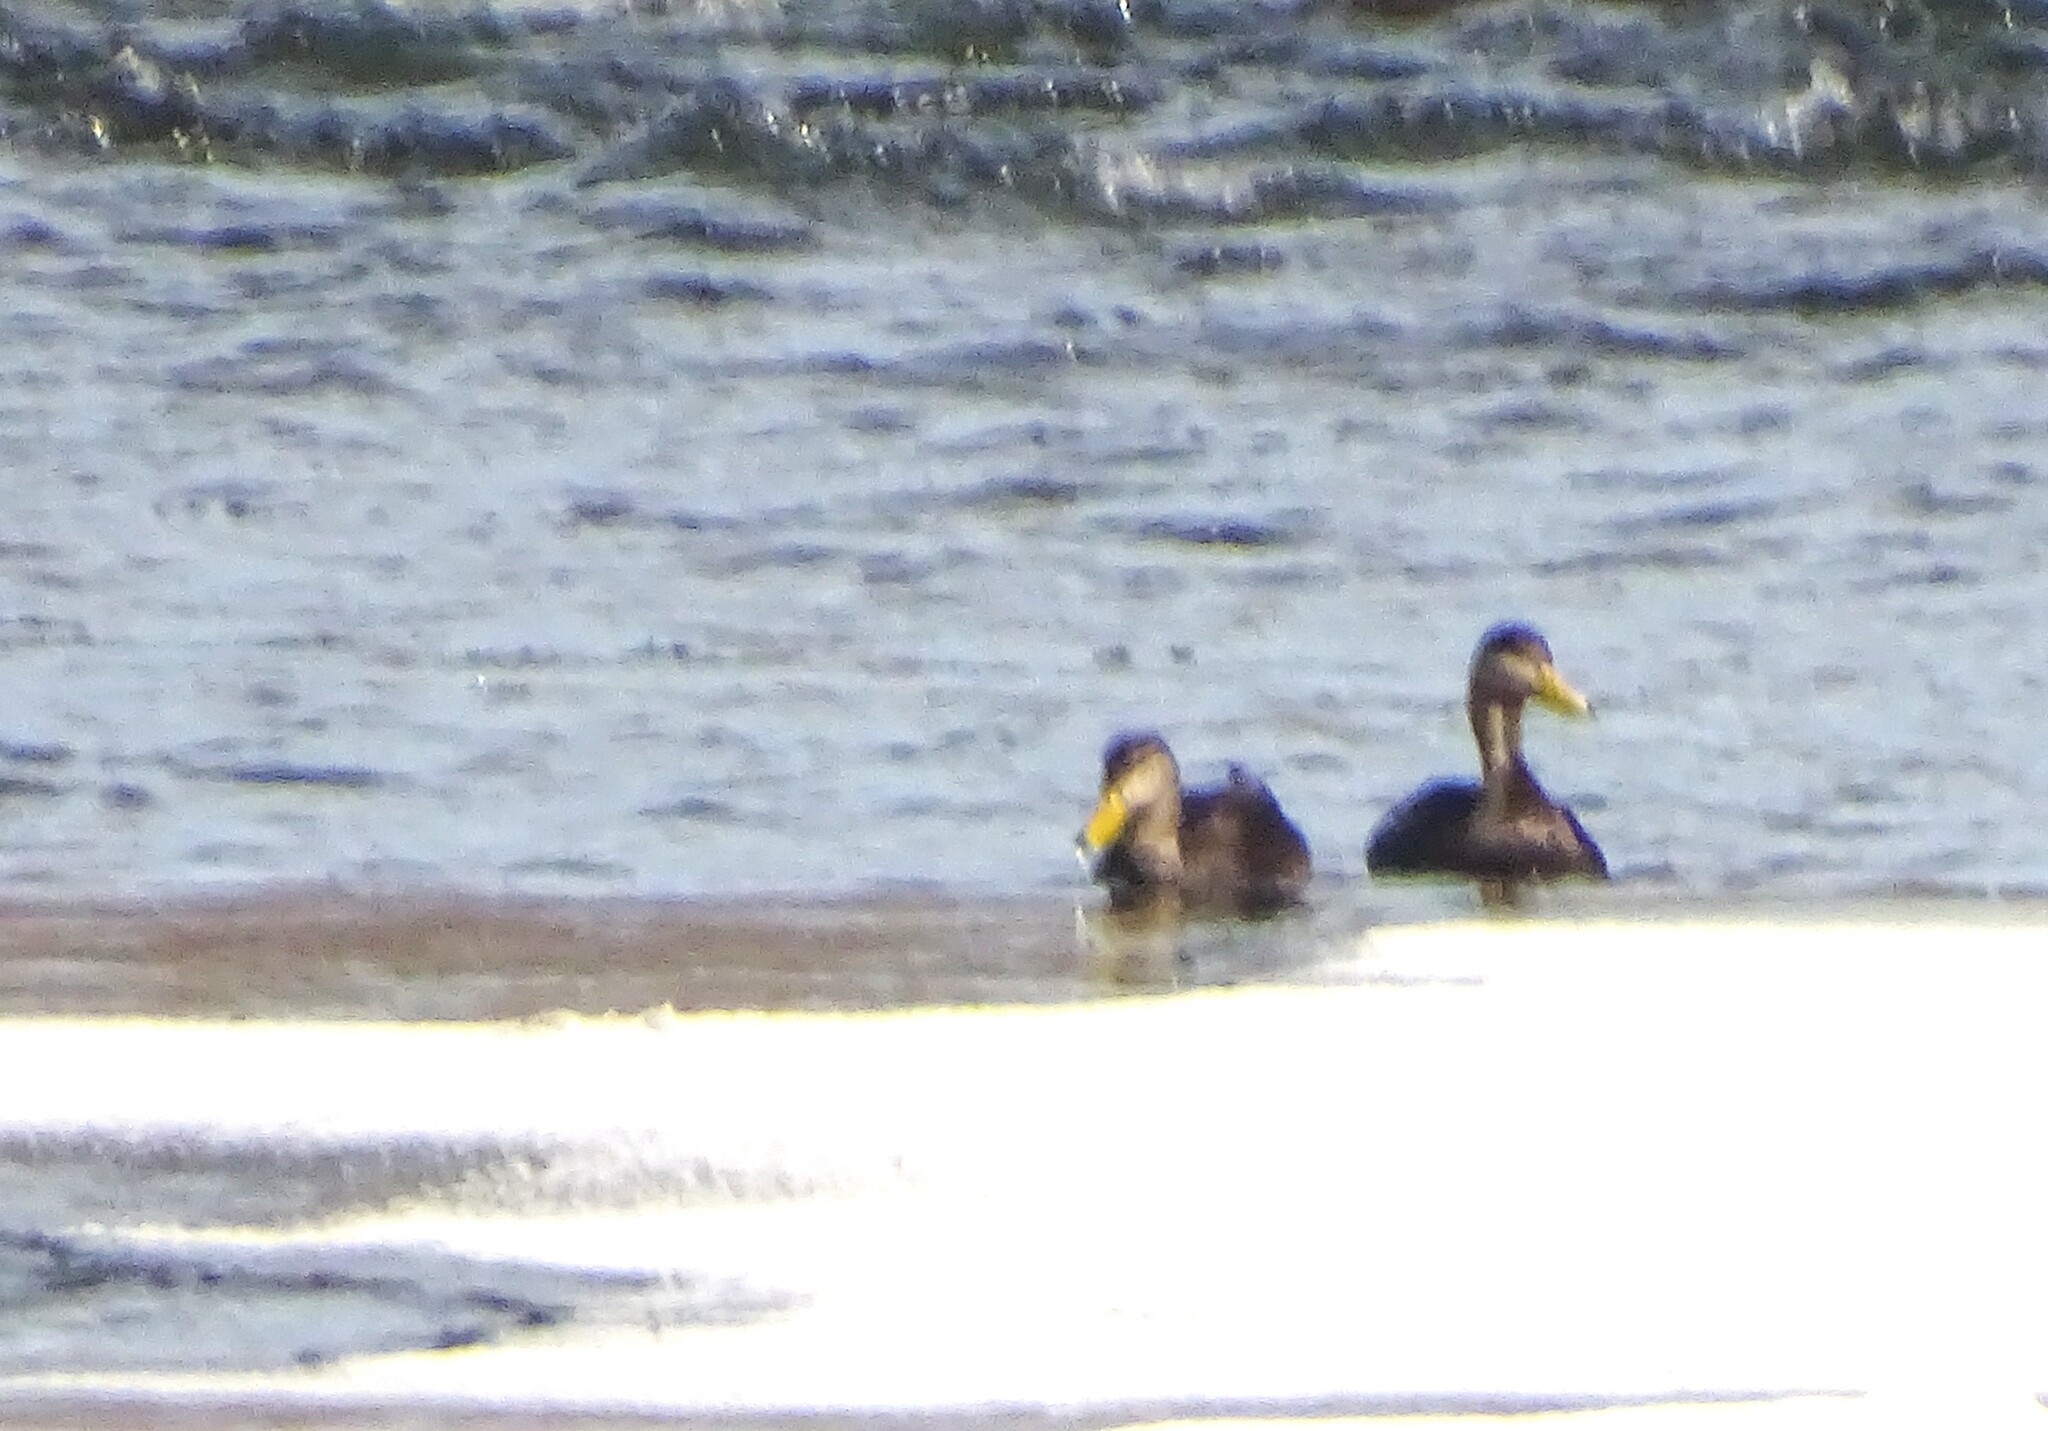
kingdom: Animalia
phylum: Chordata
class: Aves
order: Anseriformes
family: Anatidae
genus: Anas
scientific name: Anas rubripes
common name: American black duck
